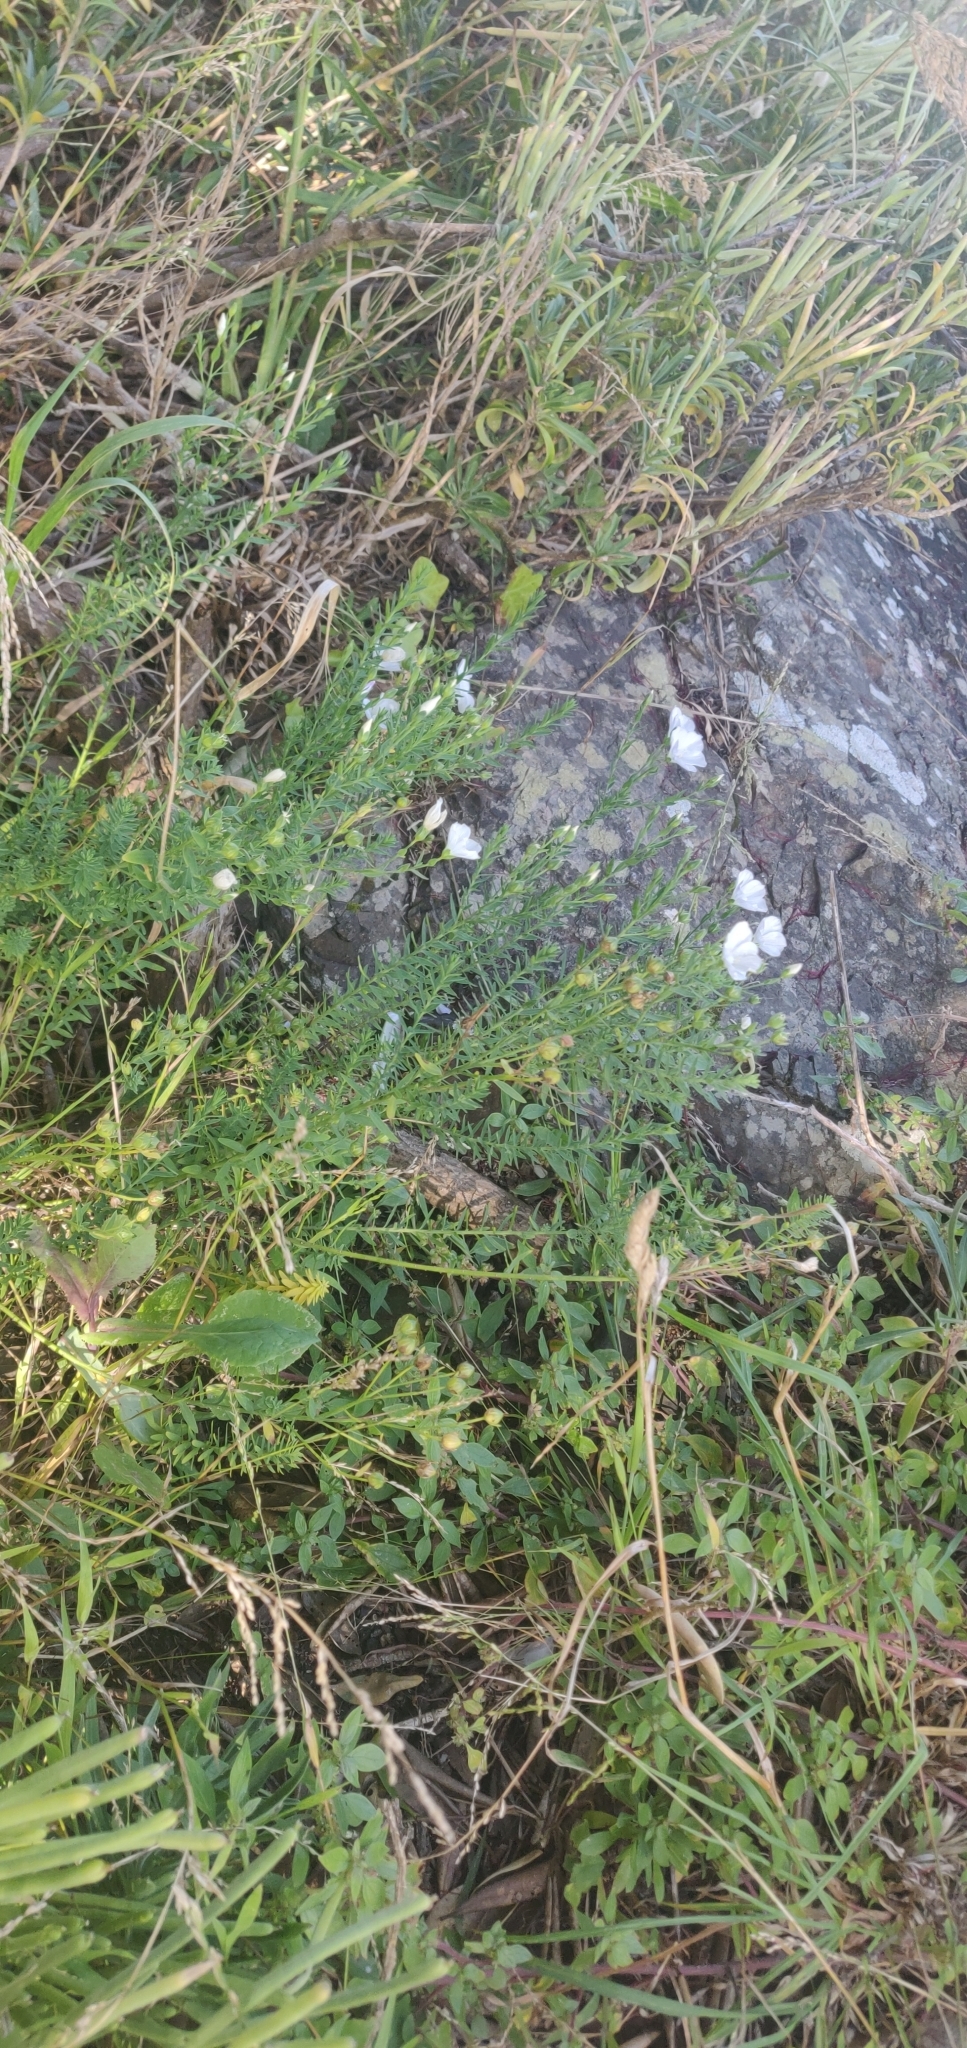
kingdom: Plantae
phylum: Tracheophyta
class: Magnoliopsida
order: Malpighiales
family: Linaceae
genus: Linum
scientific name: Linum monogynum
